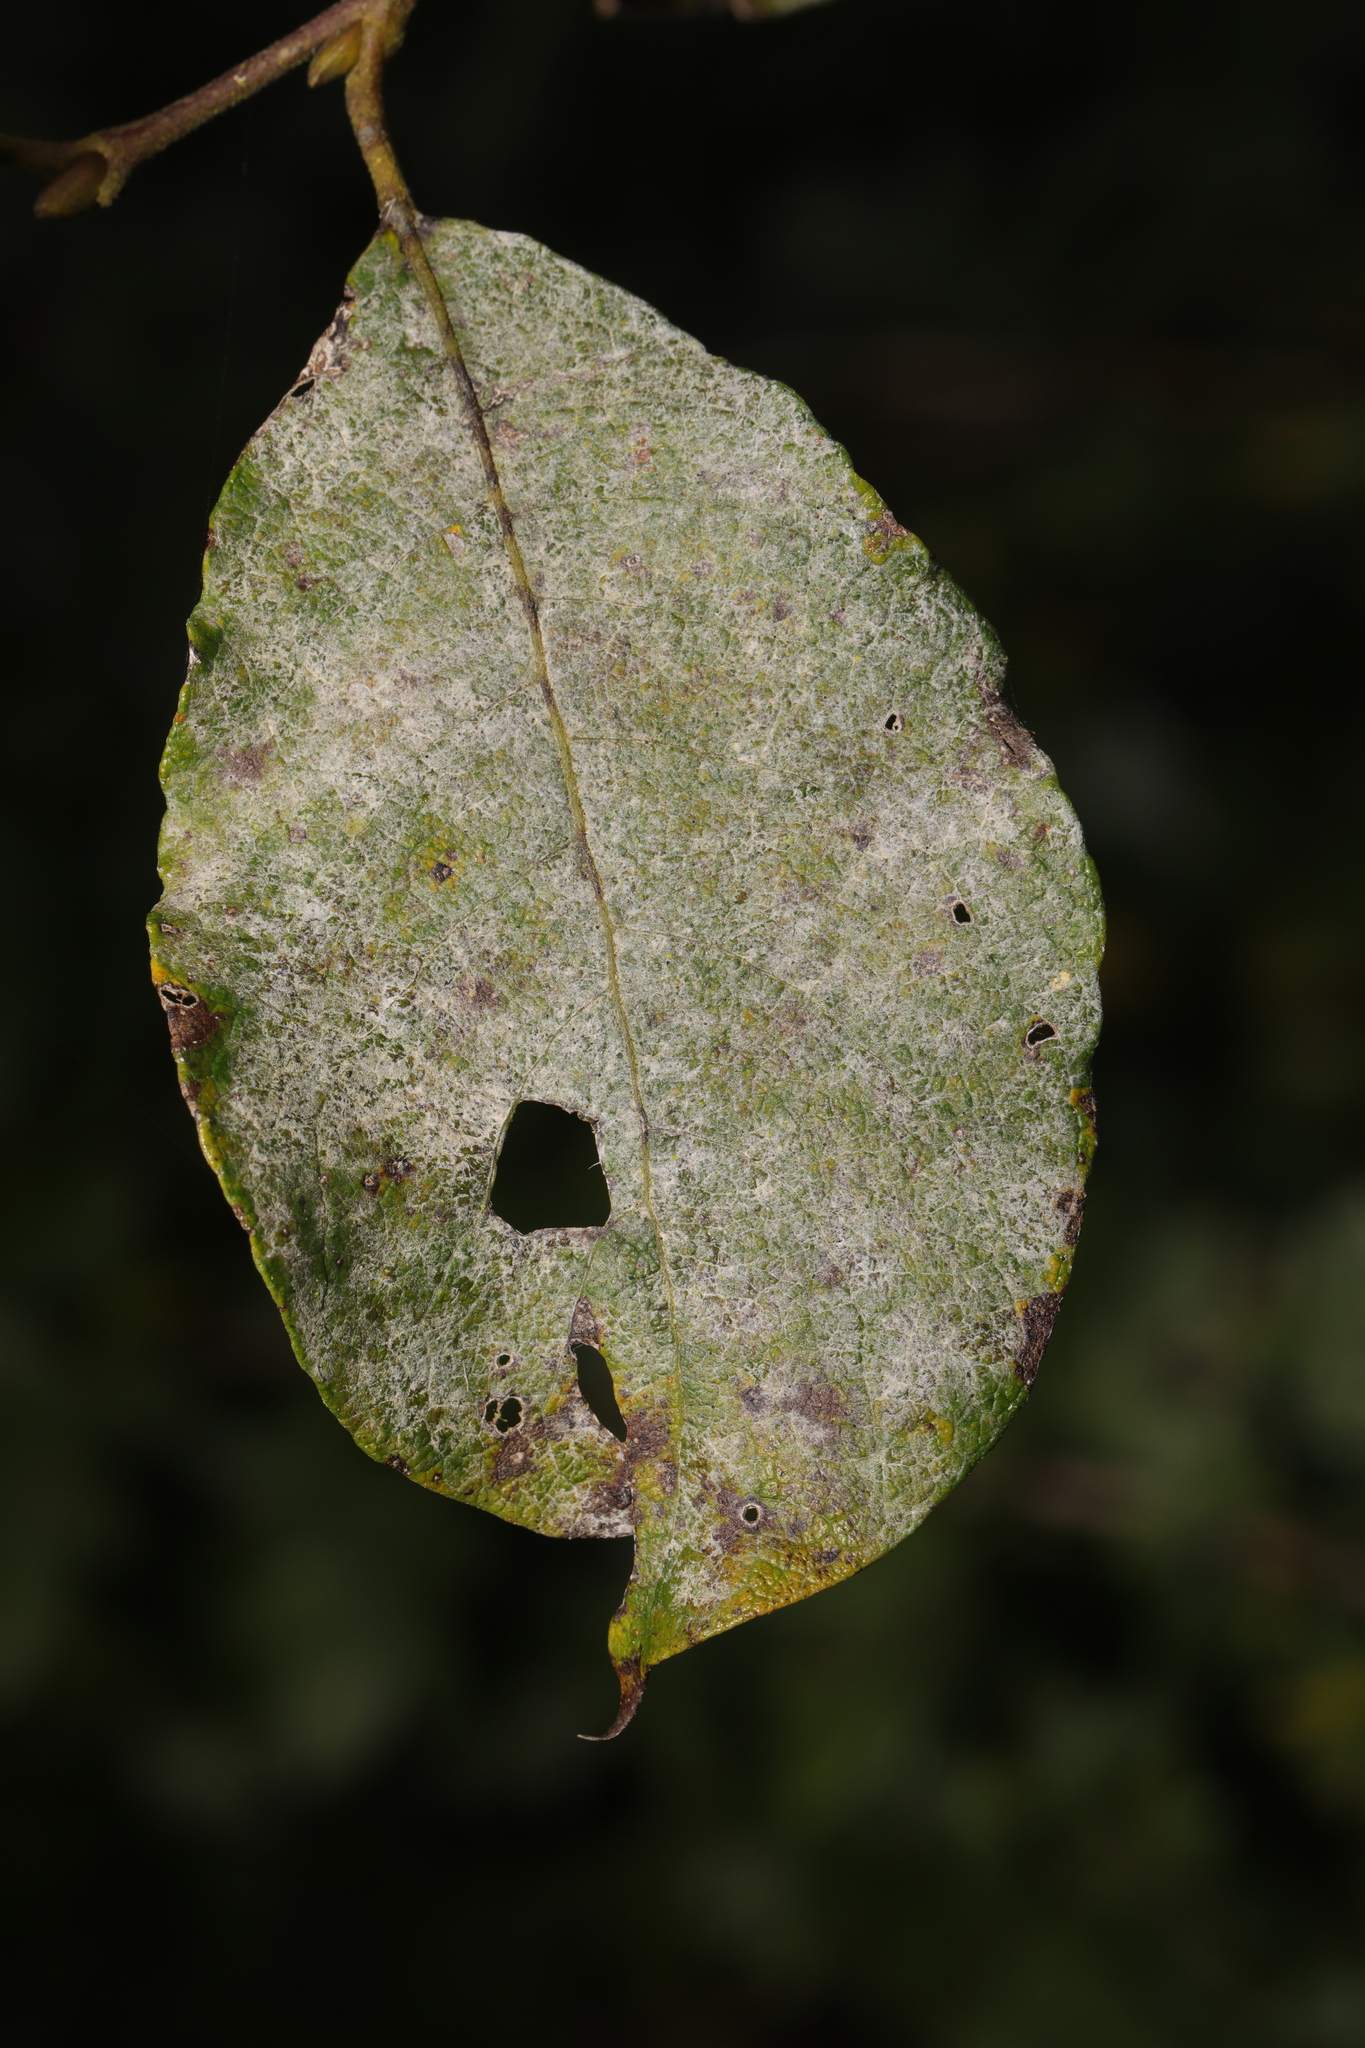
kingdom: Fungi
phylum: Ascomycota
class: Leotiomycetes
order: Helotiales
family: Erysiphaceae
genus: Erysiphe
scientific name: Erysiphe capreae
